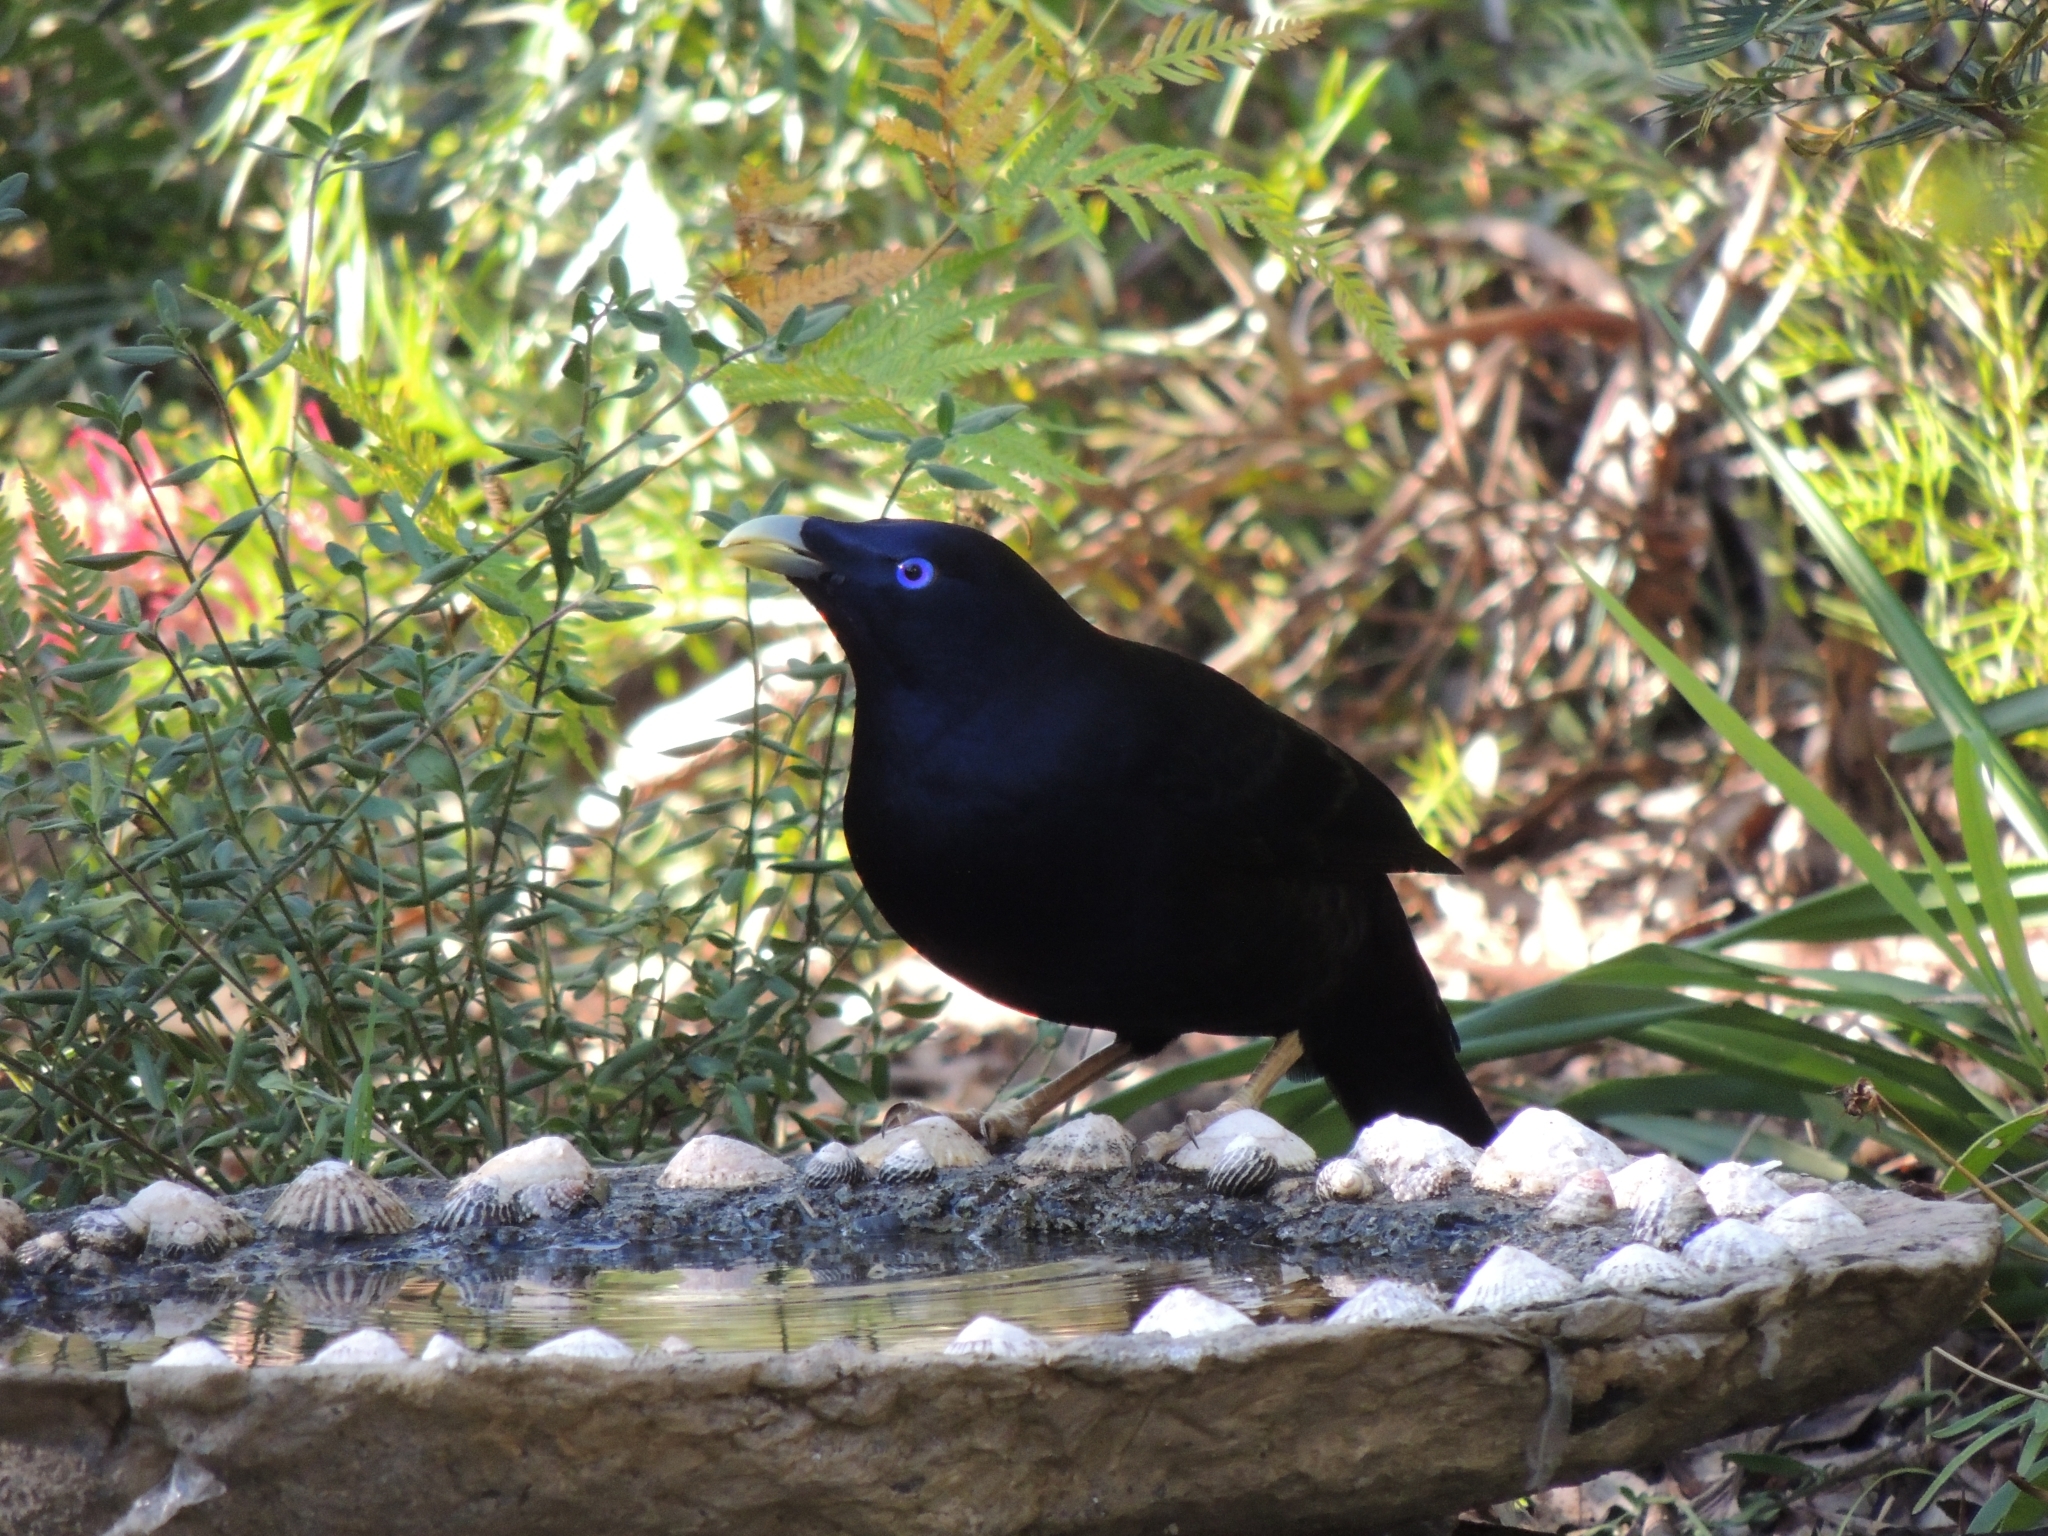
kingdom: Animalia
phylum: Chordata
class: Aves
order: Passeriformes
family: Ptilonorhynchidae
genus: Ptilonorhynchus
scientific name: Ptilonorhynchus violaceus
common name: Satin bowerbird
